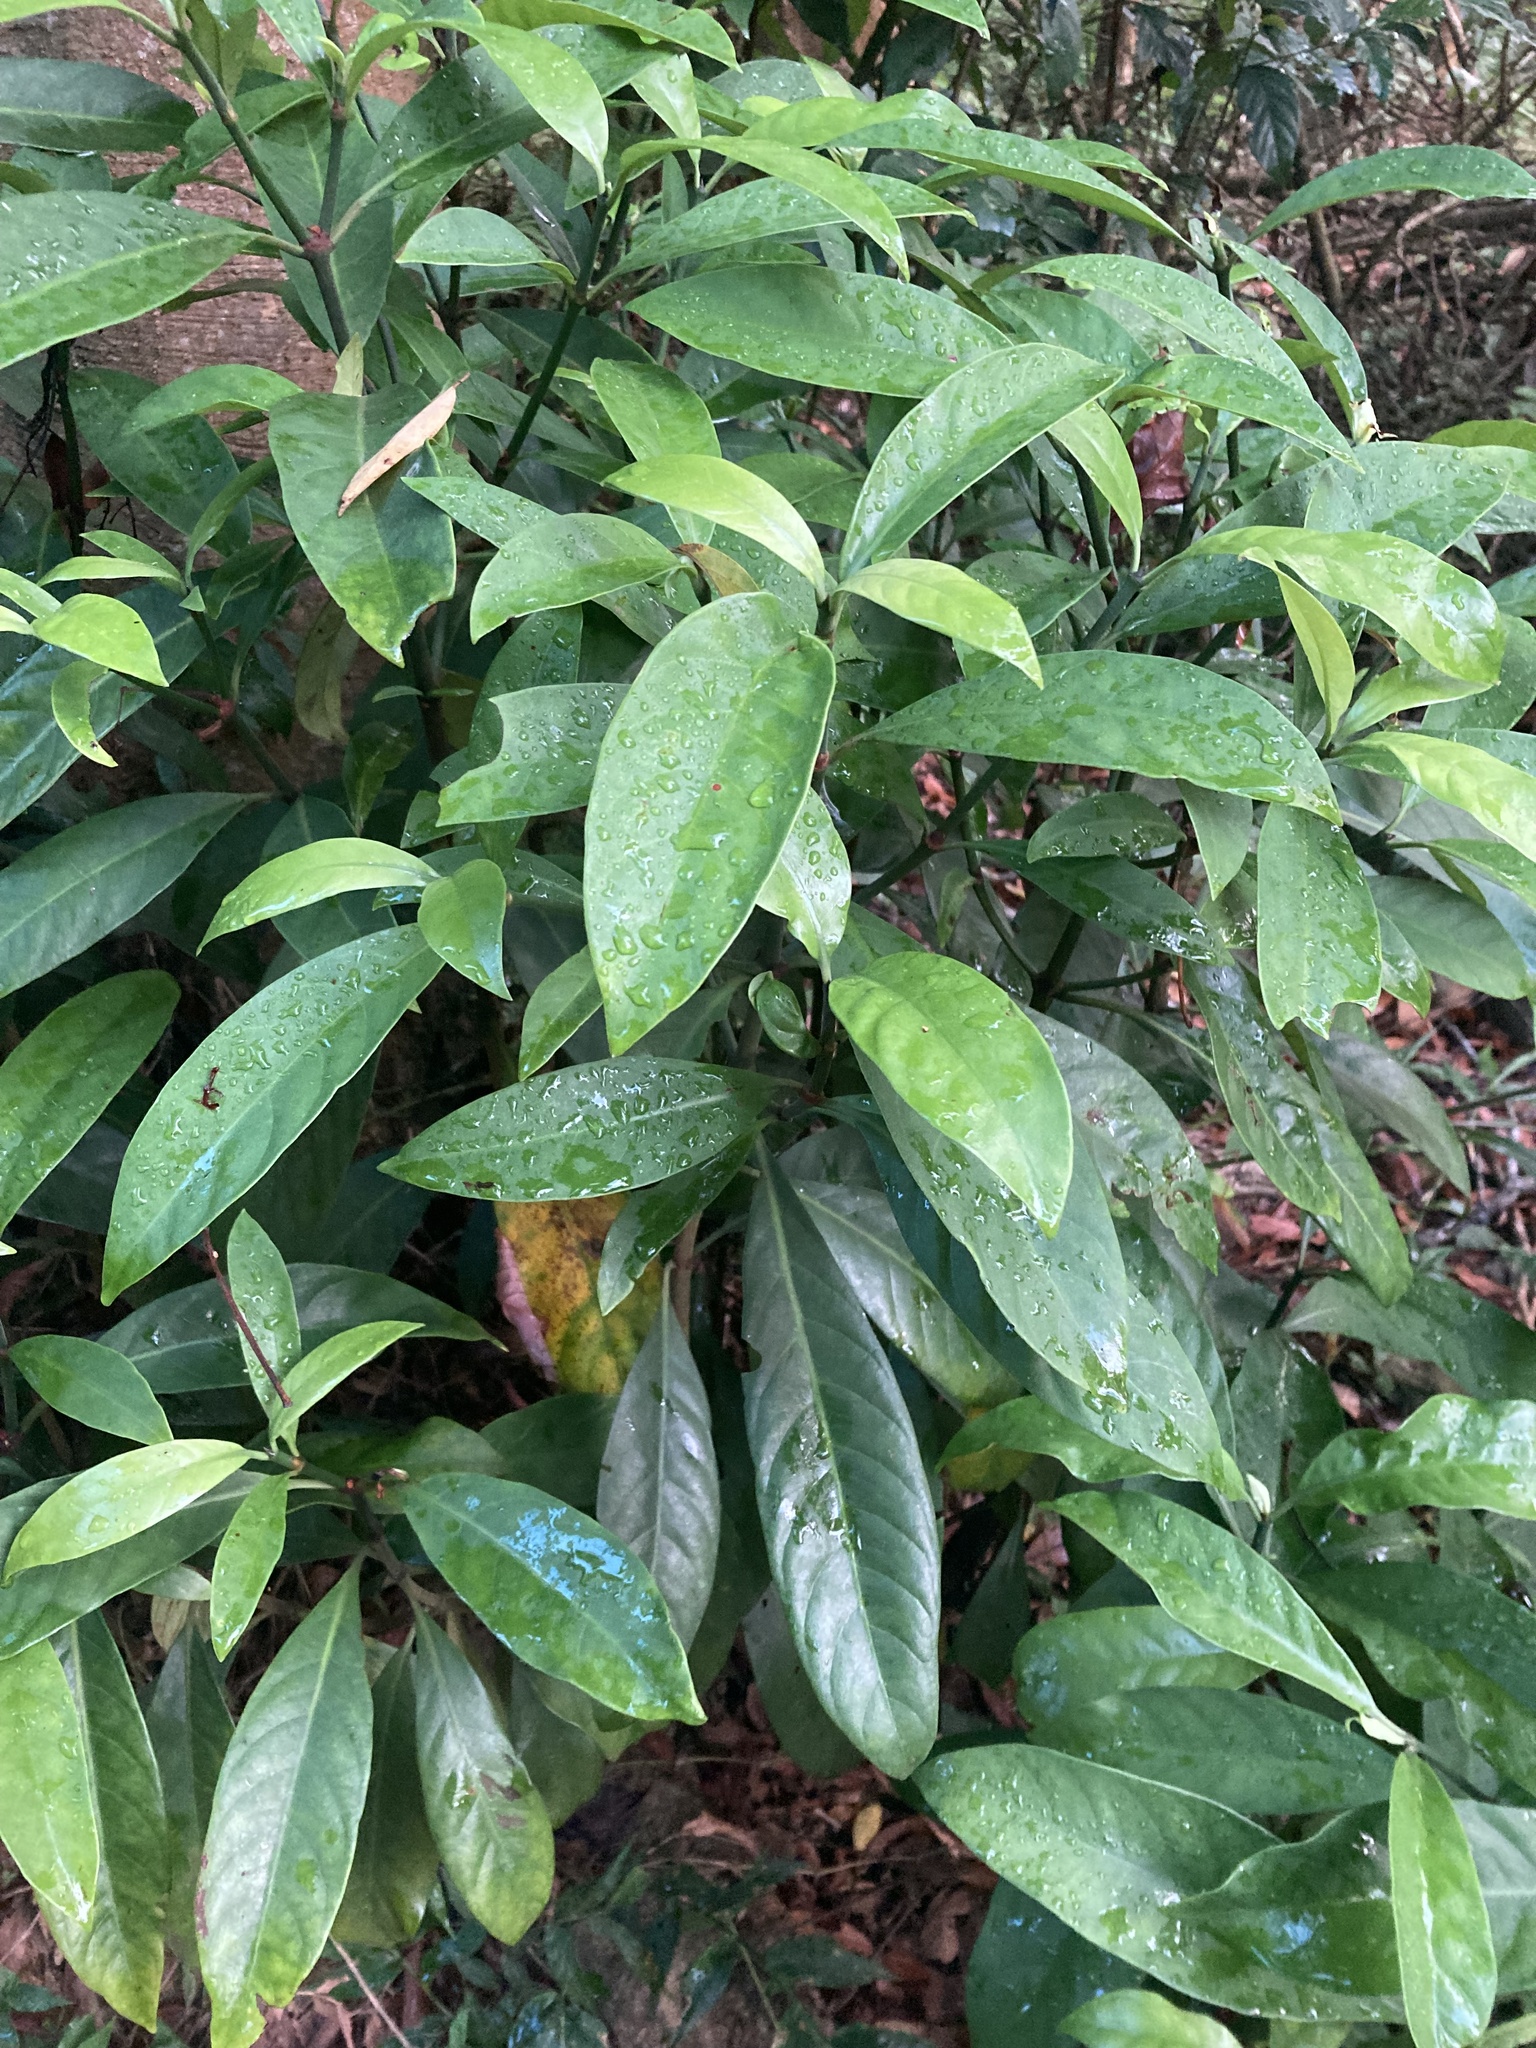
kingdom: Plantae
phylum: Tracheophyta
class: Magnoliopsida
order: Gentianales
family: Rubiaceae
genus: Psychotria
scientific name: Psychotria asiatica
